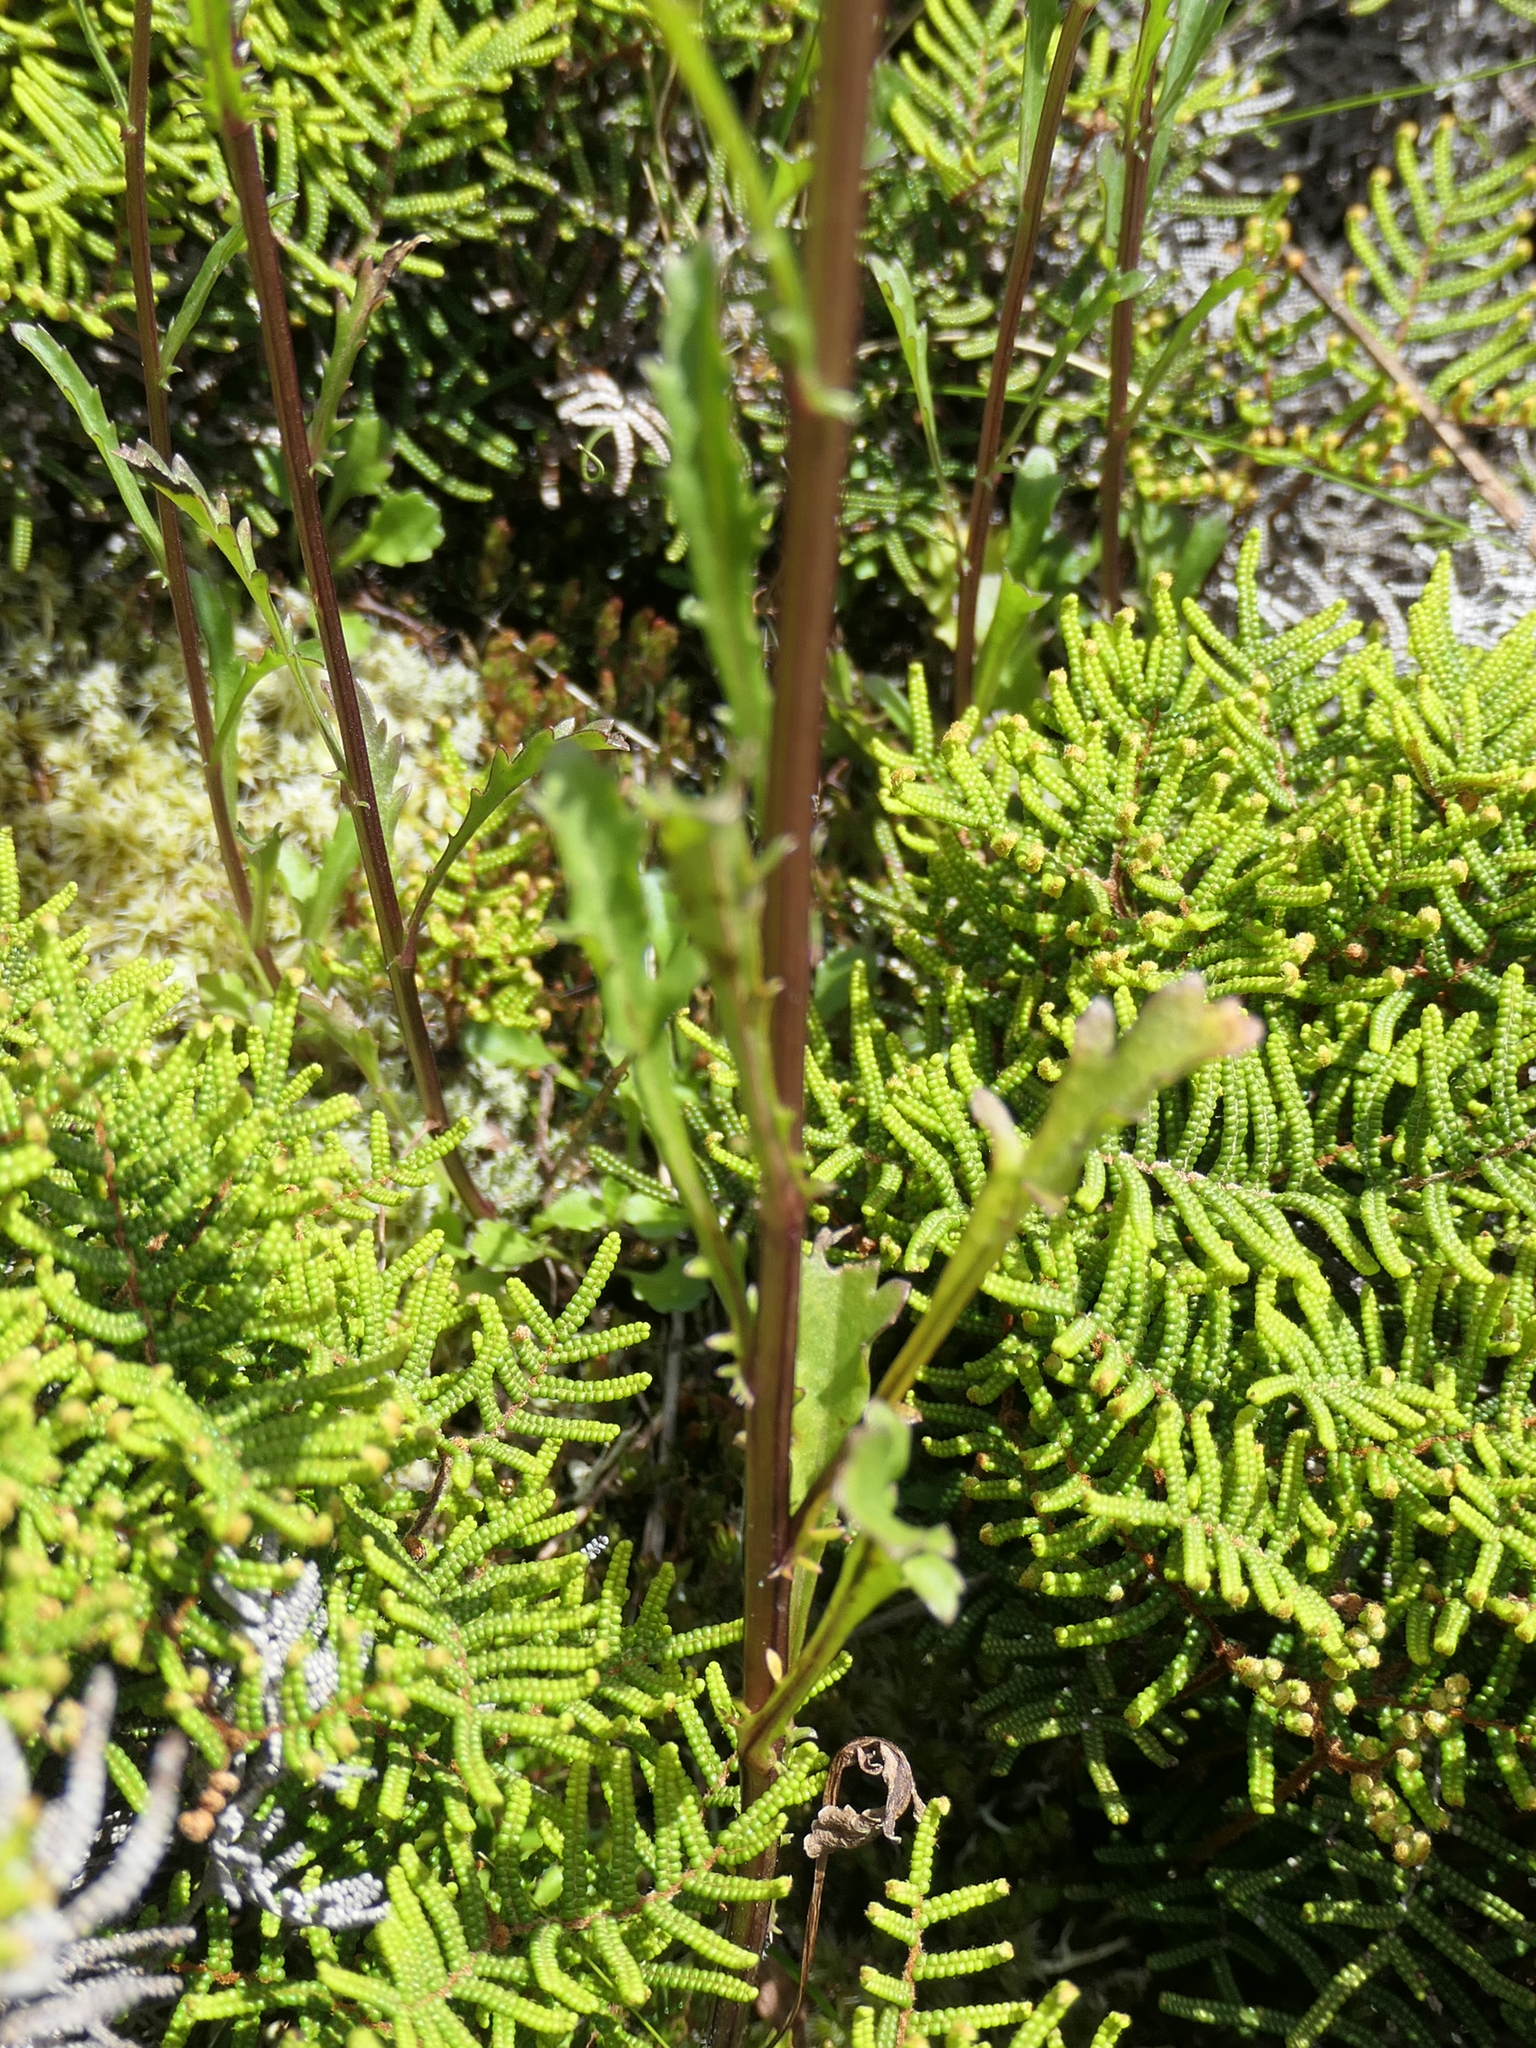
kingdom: Plantae
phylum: Tracheophyta
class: Magnoliopsida
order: Asterales
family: Asteraceae
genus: Leucanthemum
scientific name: Leucanthemum vulgare
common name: Oxeye daisy
